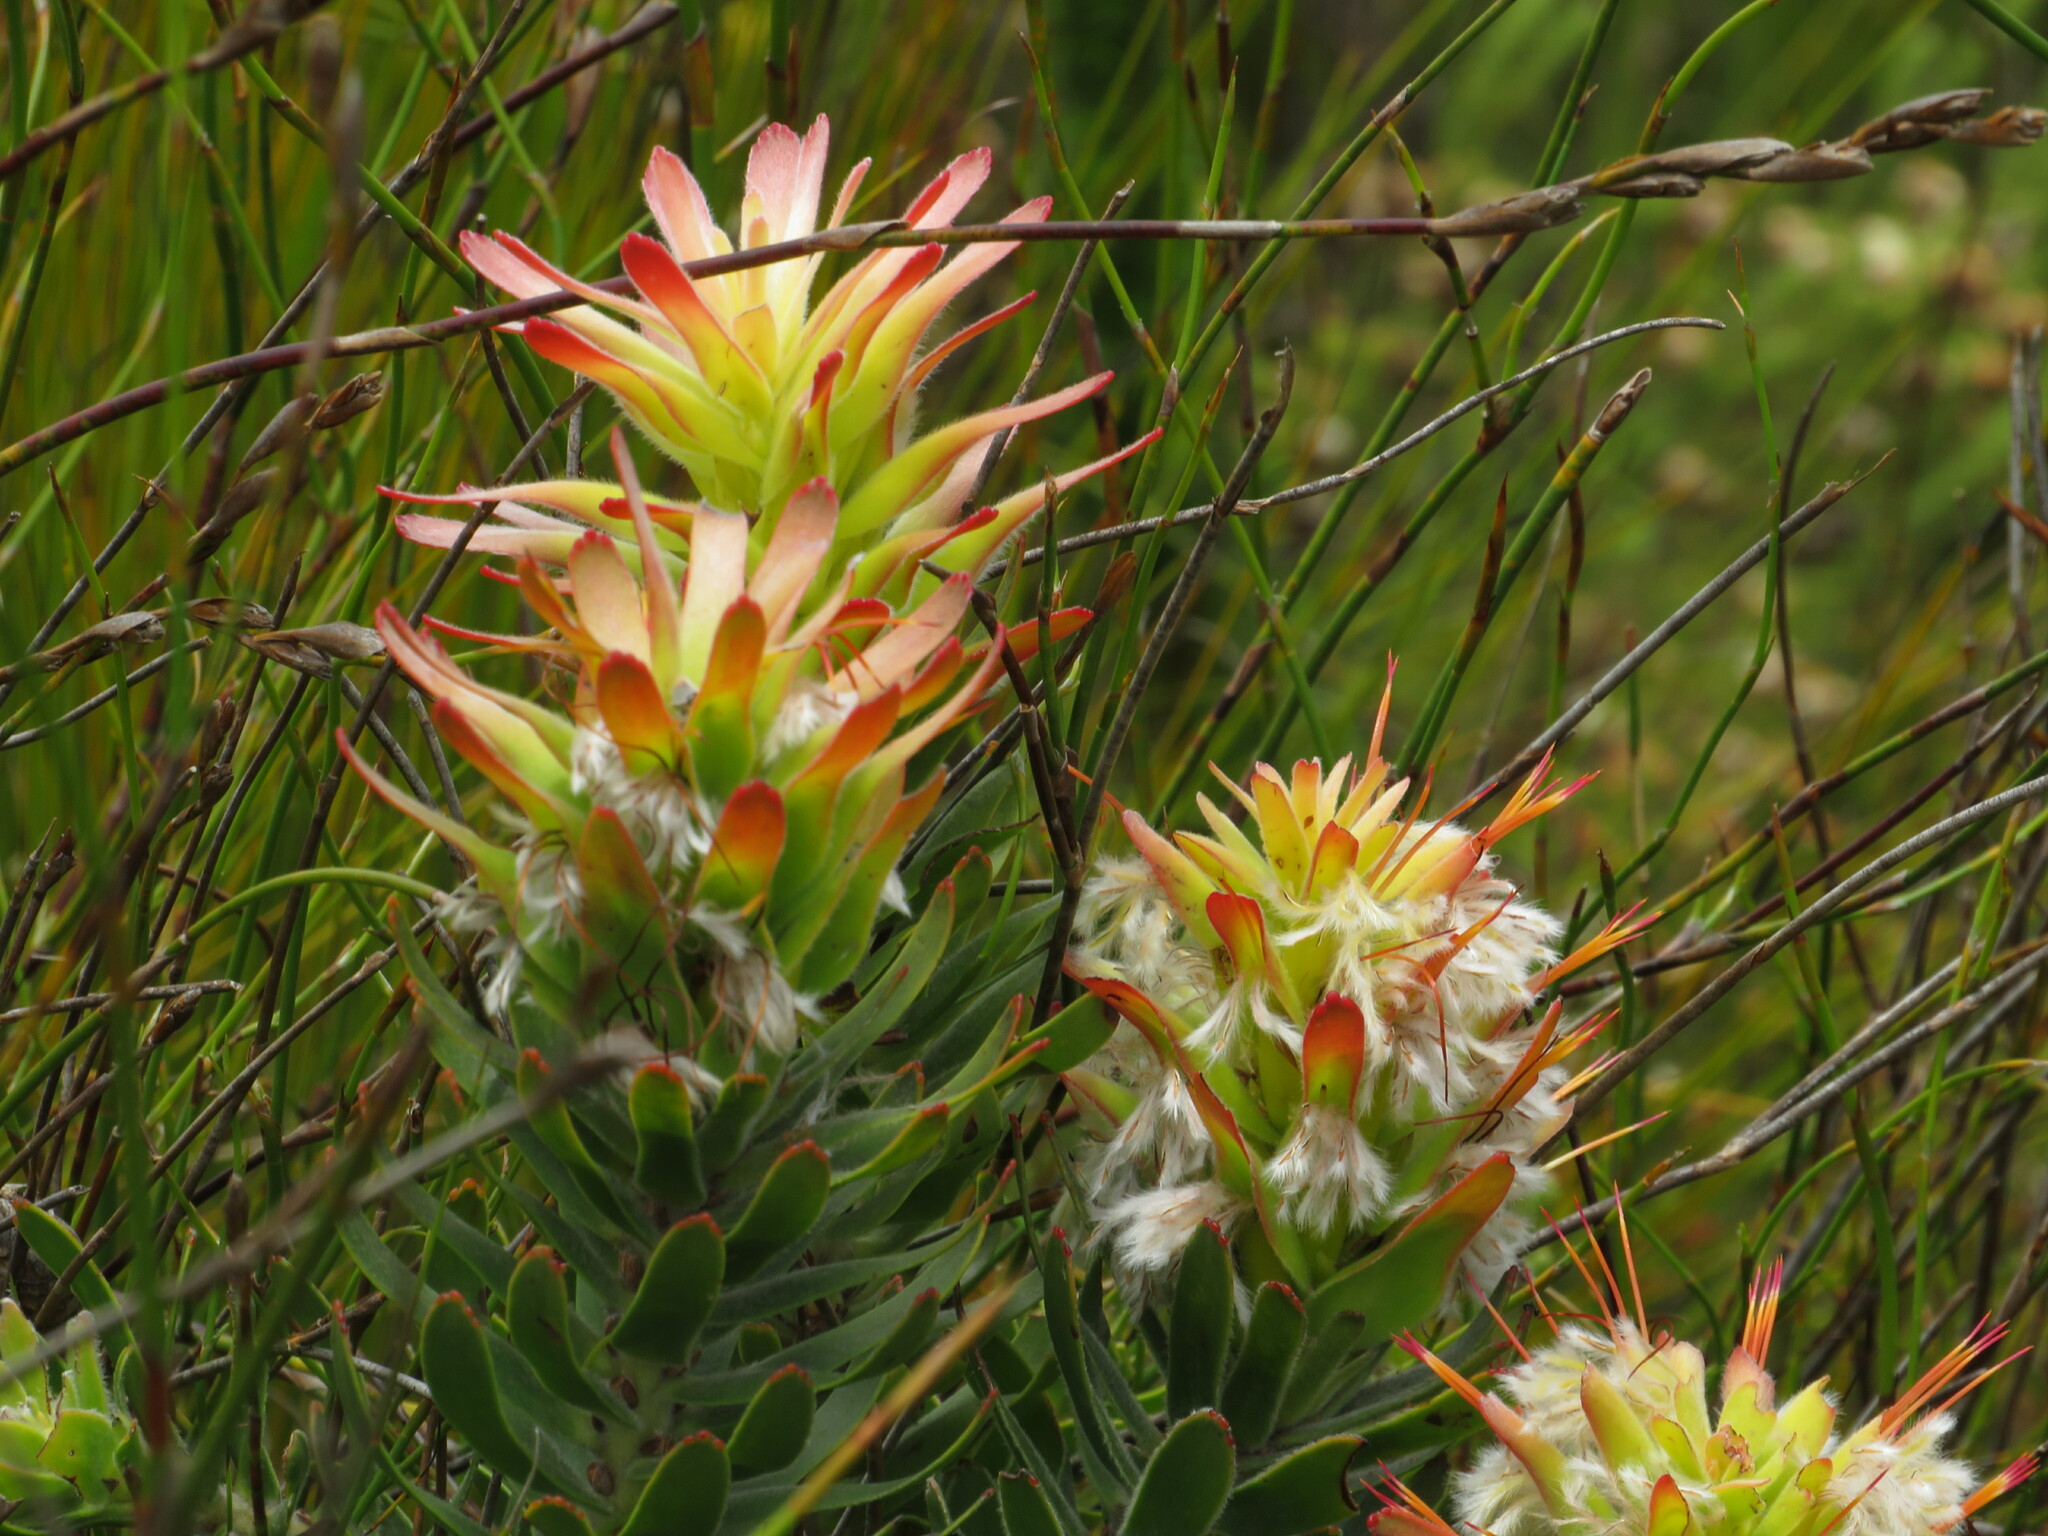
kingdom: Plantae
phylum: Tracheophyta
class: Magnoliopsida
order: Proteales
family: Proteaceae
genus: Mimetes
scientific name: Mimetes cucullatus
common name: Common pagoda
